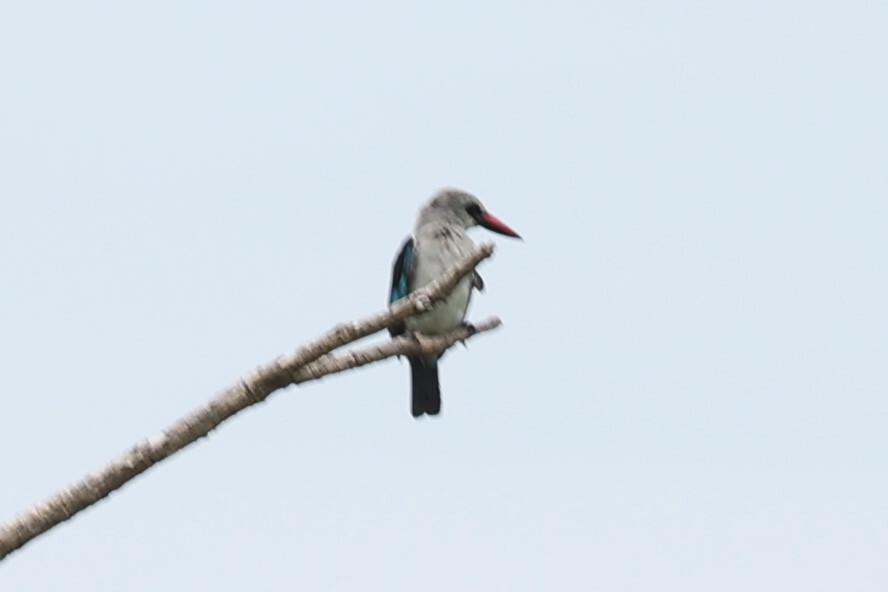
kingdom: Animalia
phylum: Chordata
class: Aves
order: Coraciiformes
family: Alcedinidae
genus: Halcyon
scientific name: Halcyon senegalensis
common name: Woodland kingfisher
